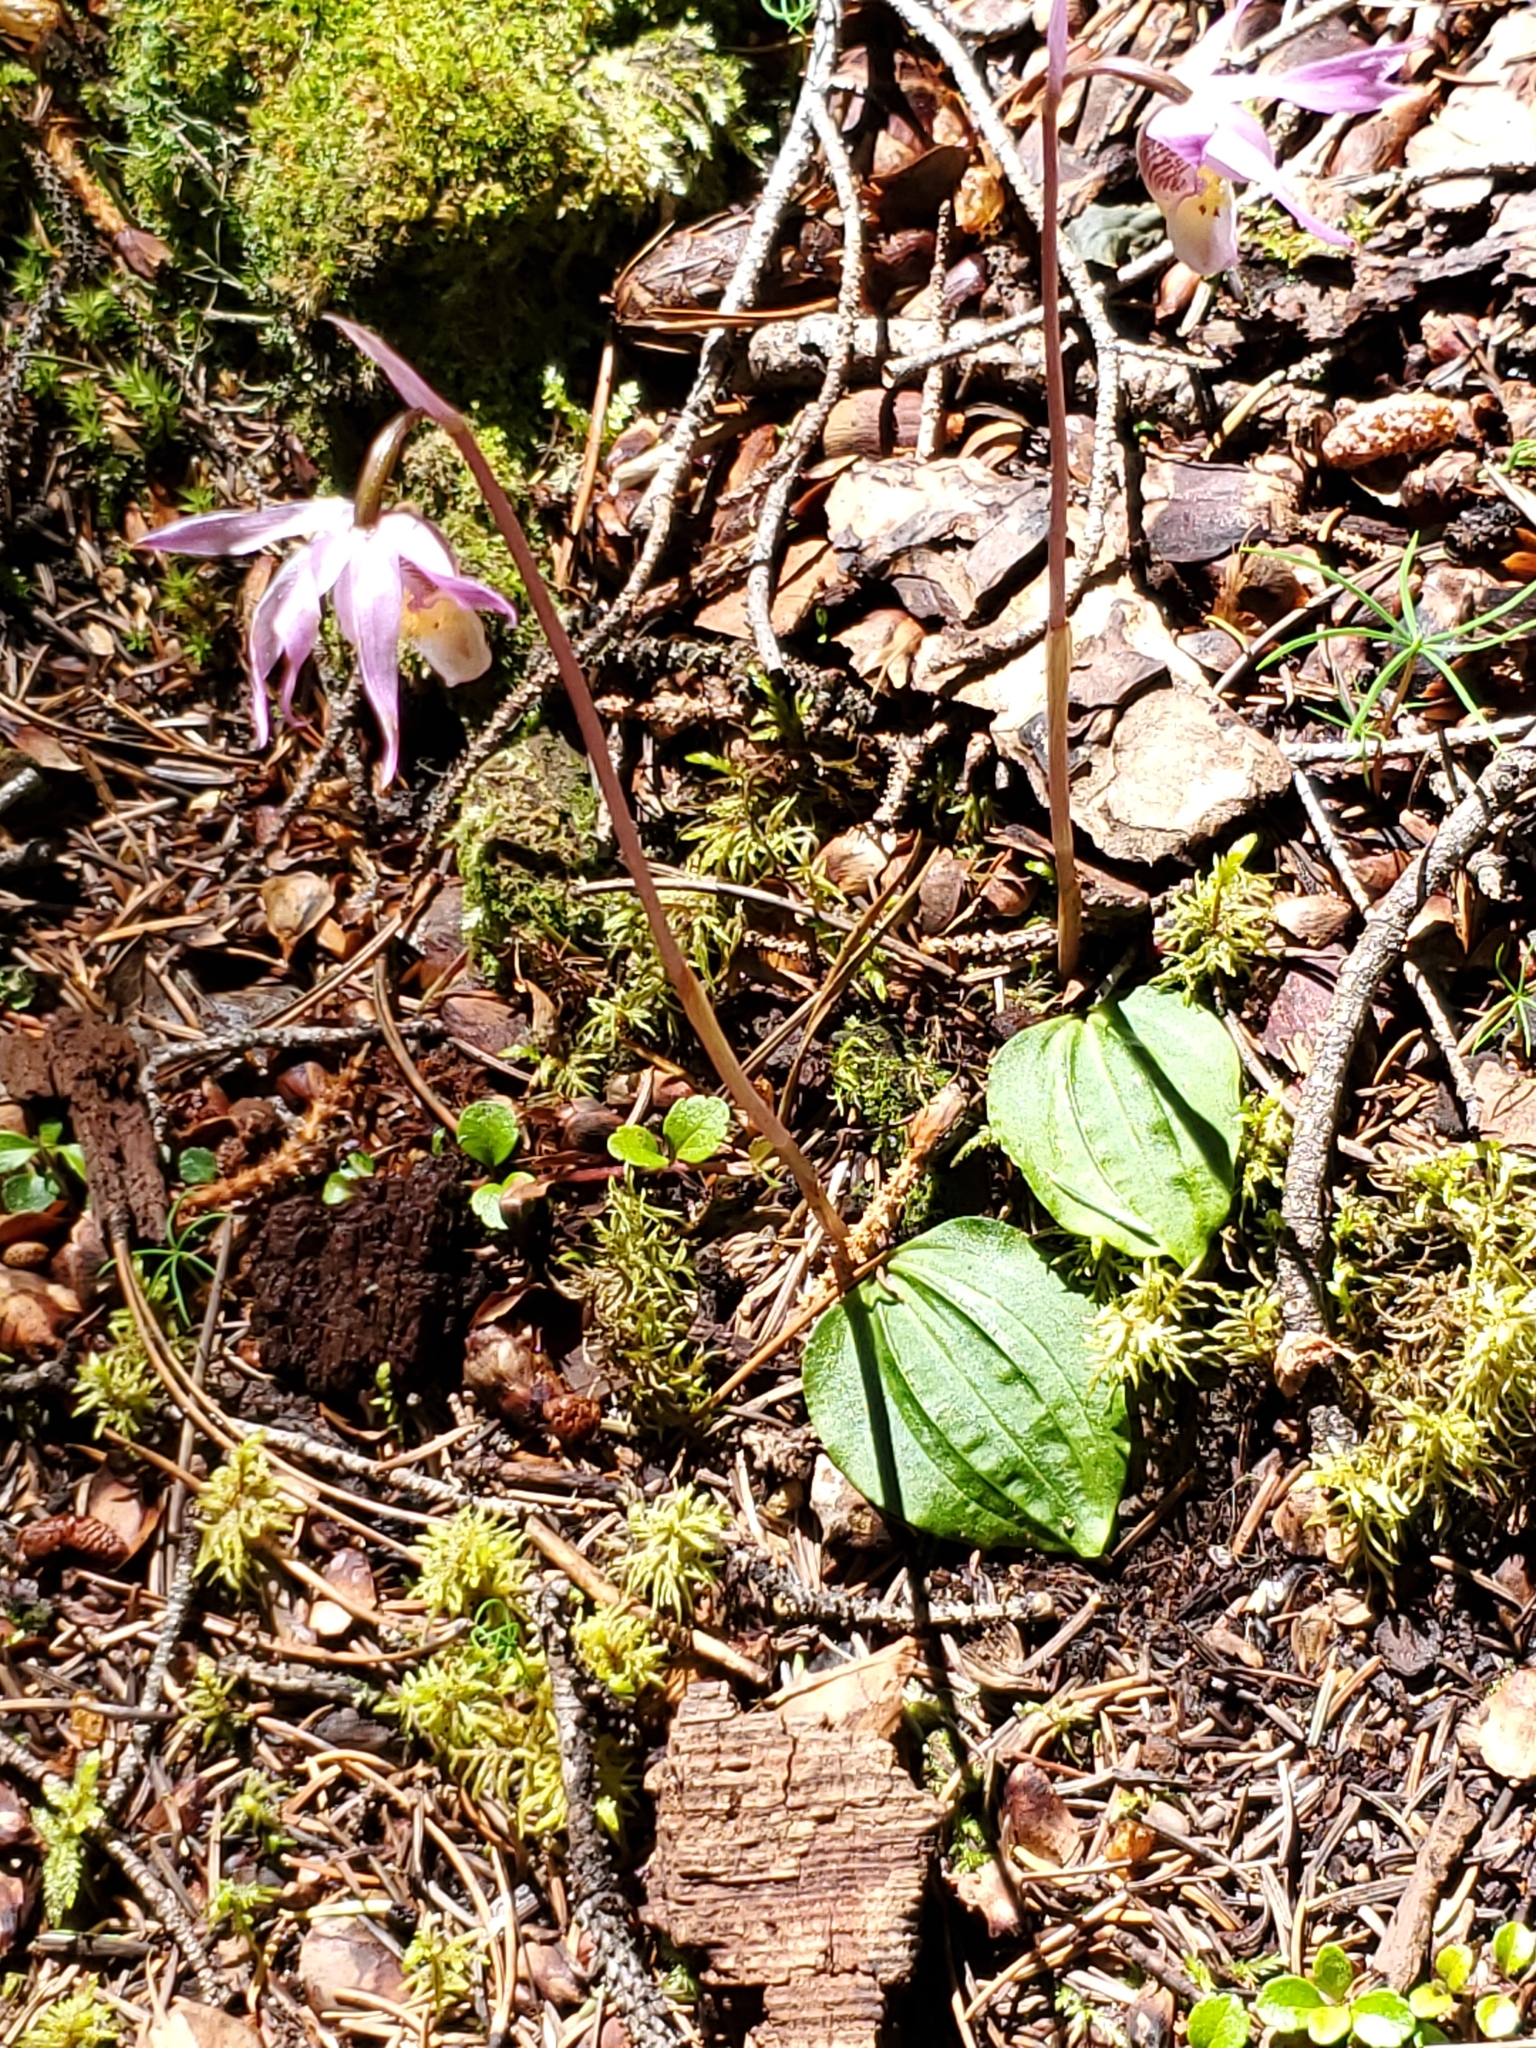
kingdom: Plantae
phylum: Tracheophyta
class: Liliopsida
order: Asparagales
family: Orchidaceae
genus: Calypso
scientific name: Calypso bulbosa
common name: Calypso
